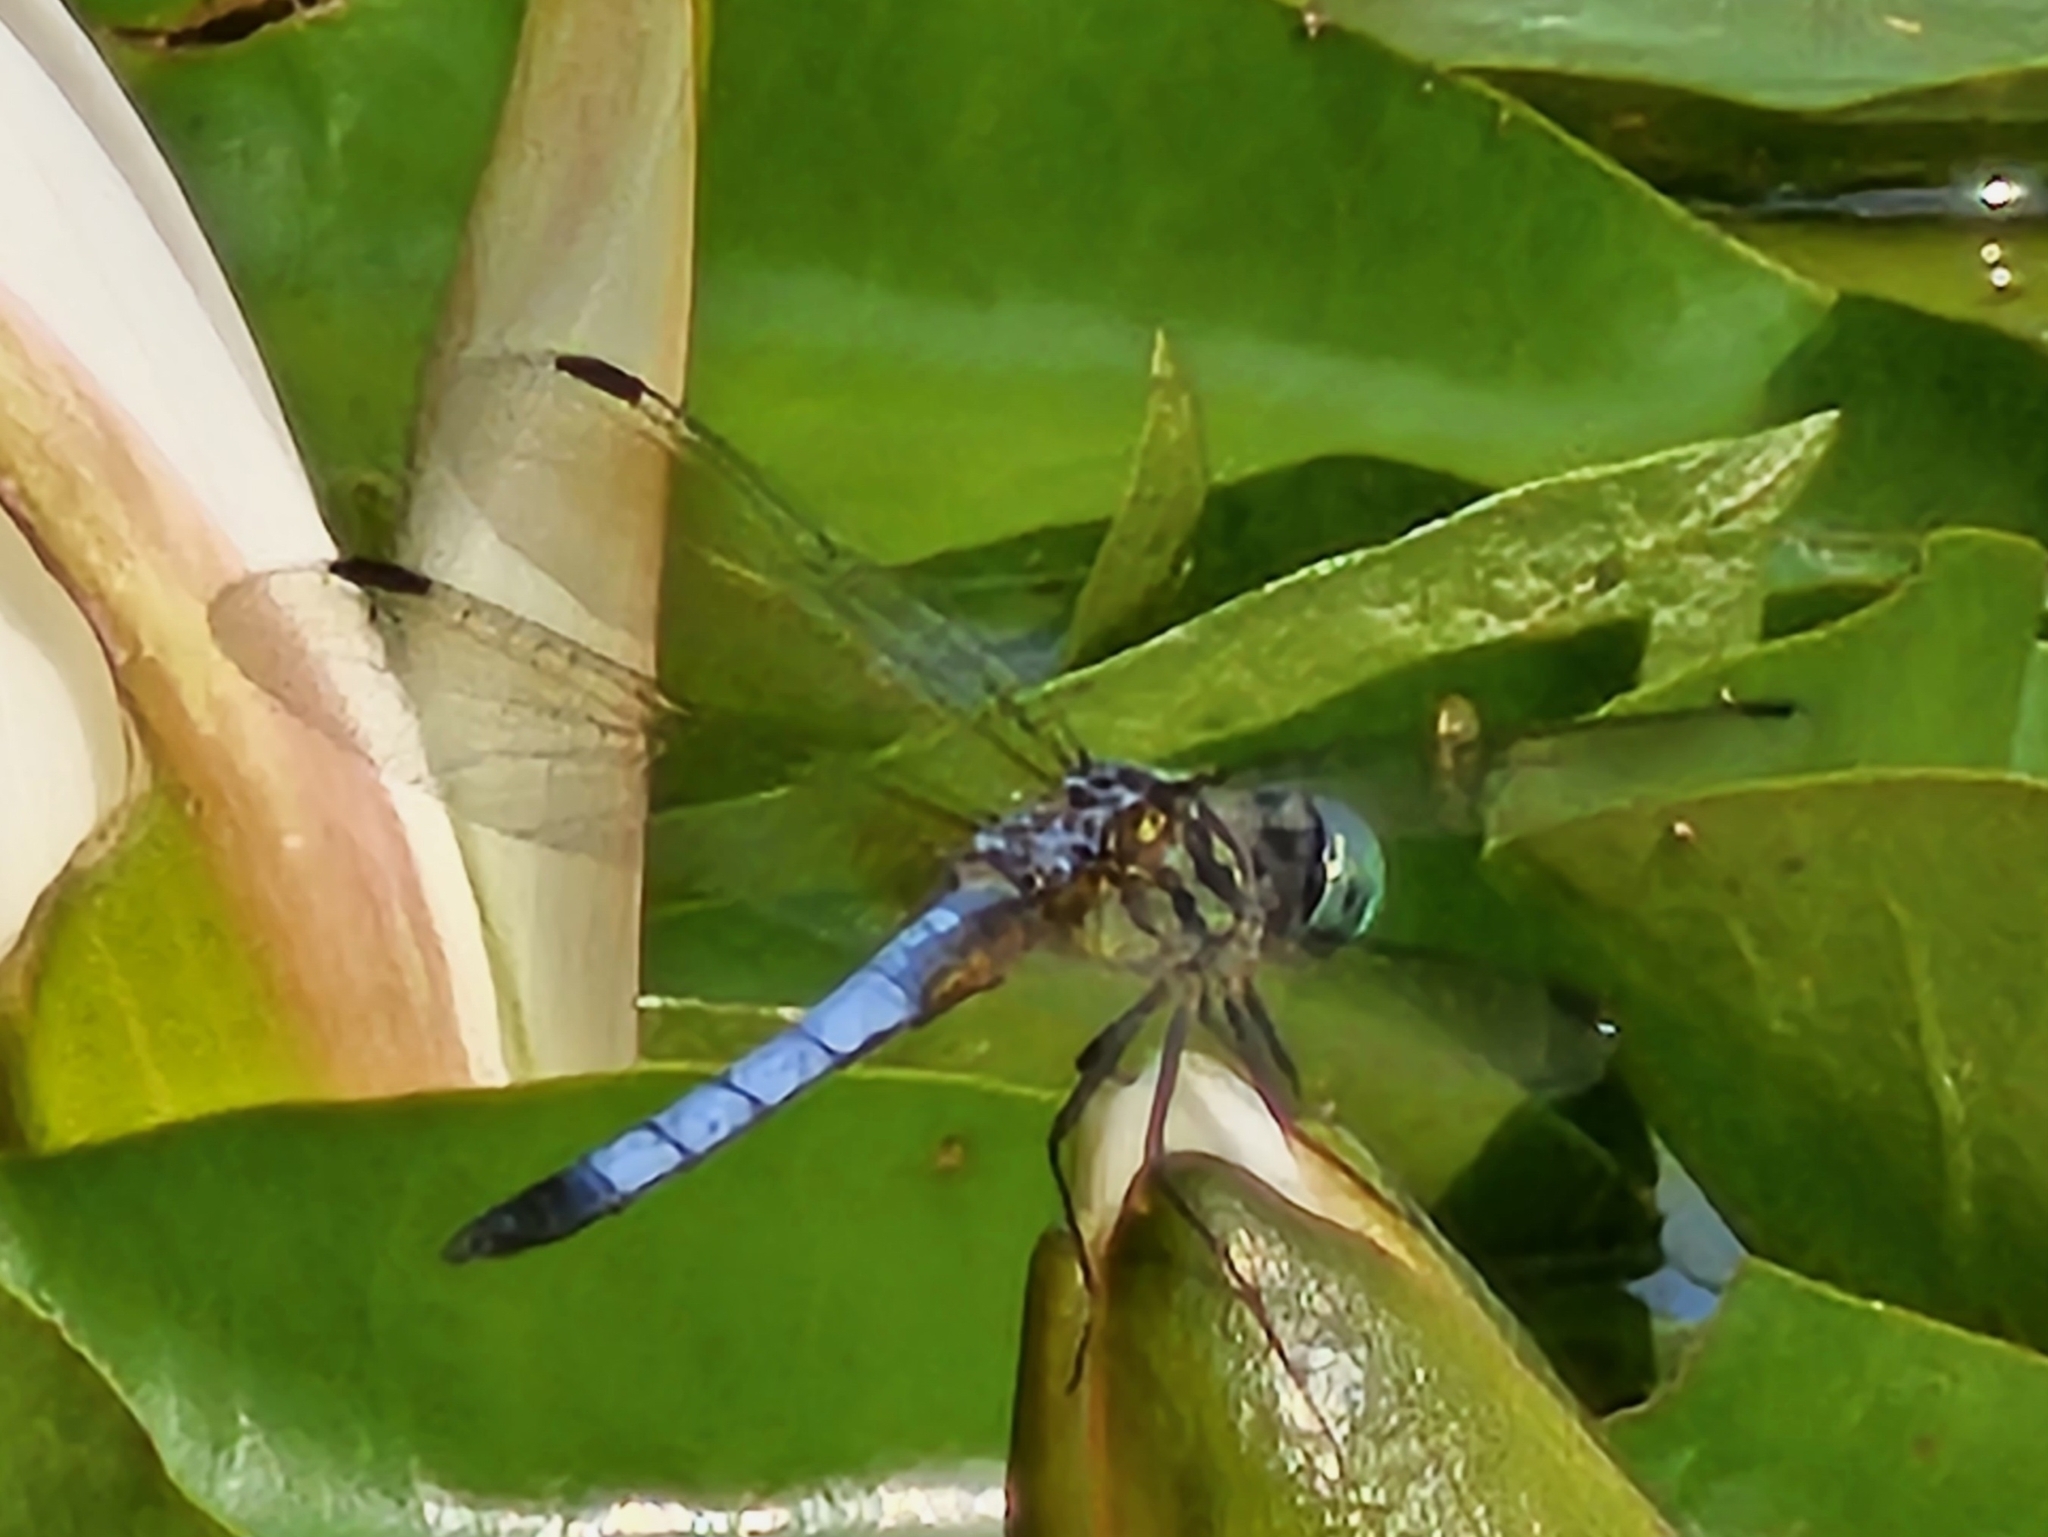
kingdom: Animalia
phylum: Arthropoda
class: Insecta
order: Odonata
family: Libellulidae
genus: Pachydiplax
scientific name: Pachydiplax longipennis
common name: Blue dasher
